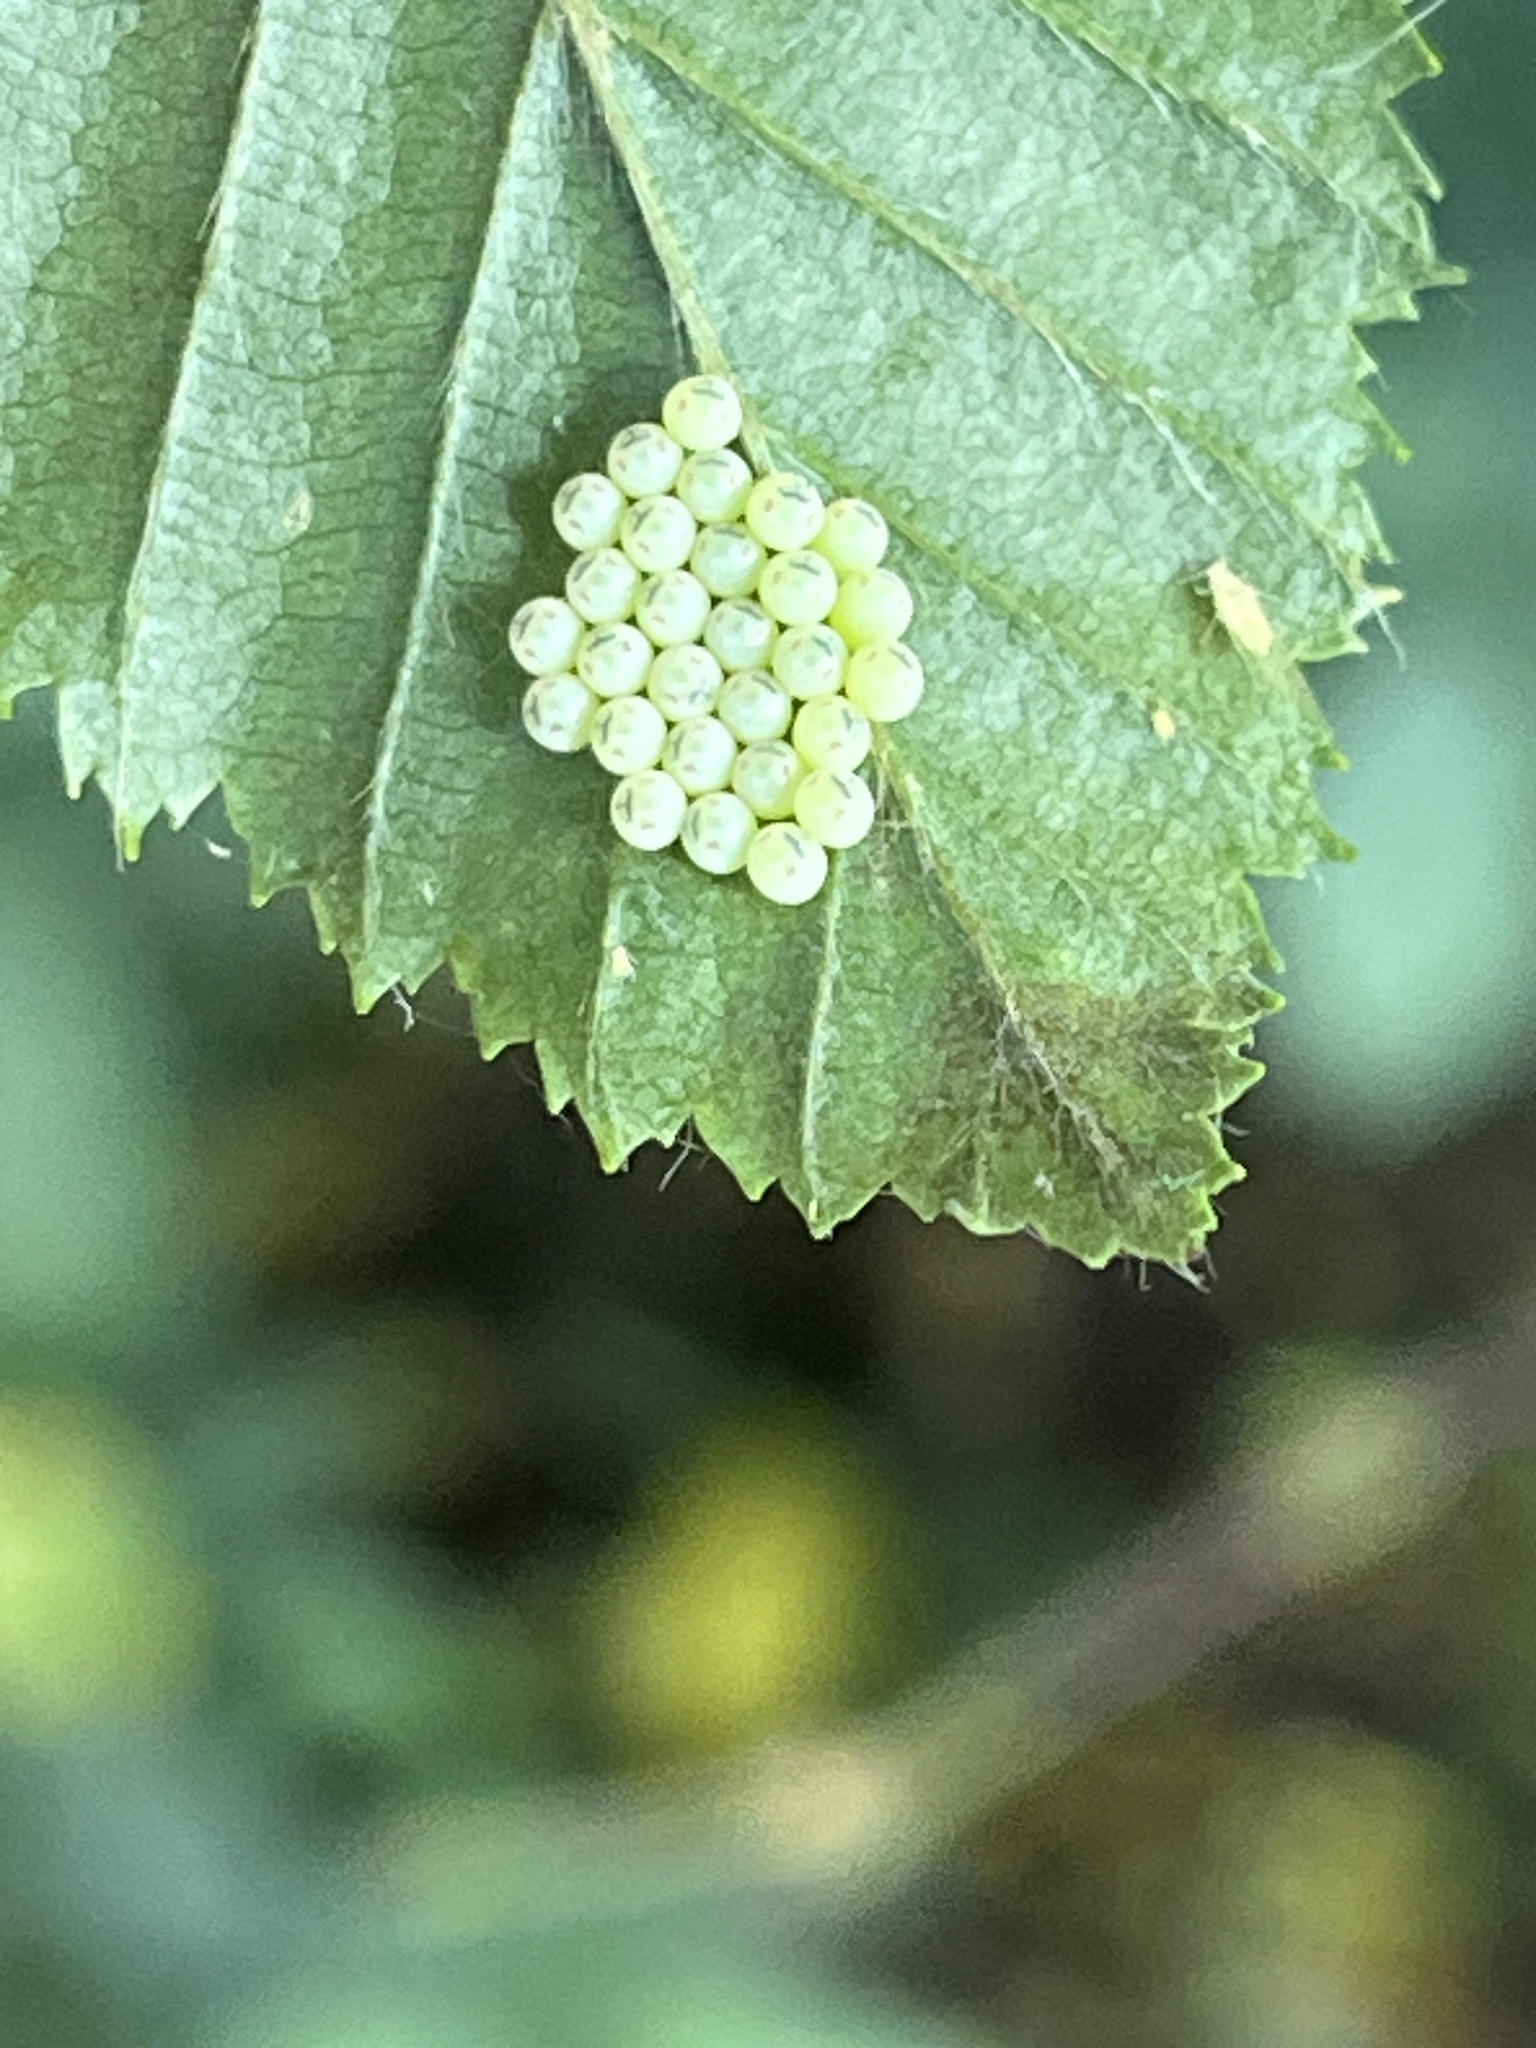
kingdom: Animalia
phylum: Arthropoda
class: Insecta
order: Hemiptera
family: Pentatomidae
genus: Palomena
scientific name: Palomena prasina
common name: Green shieldbug
